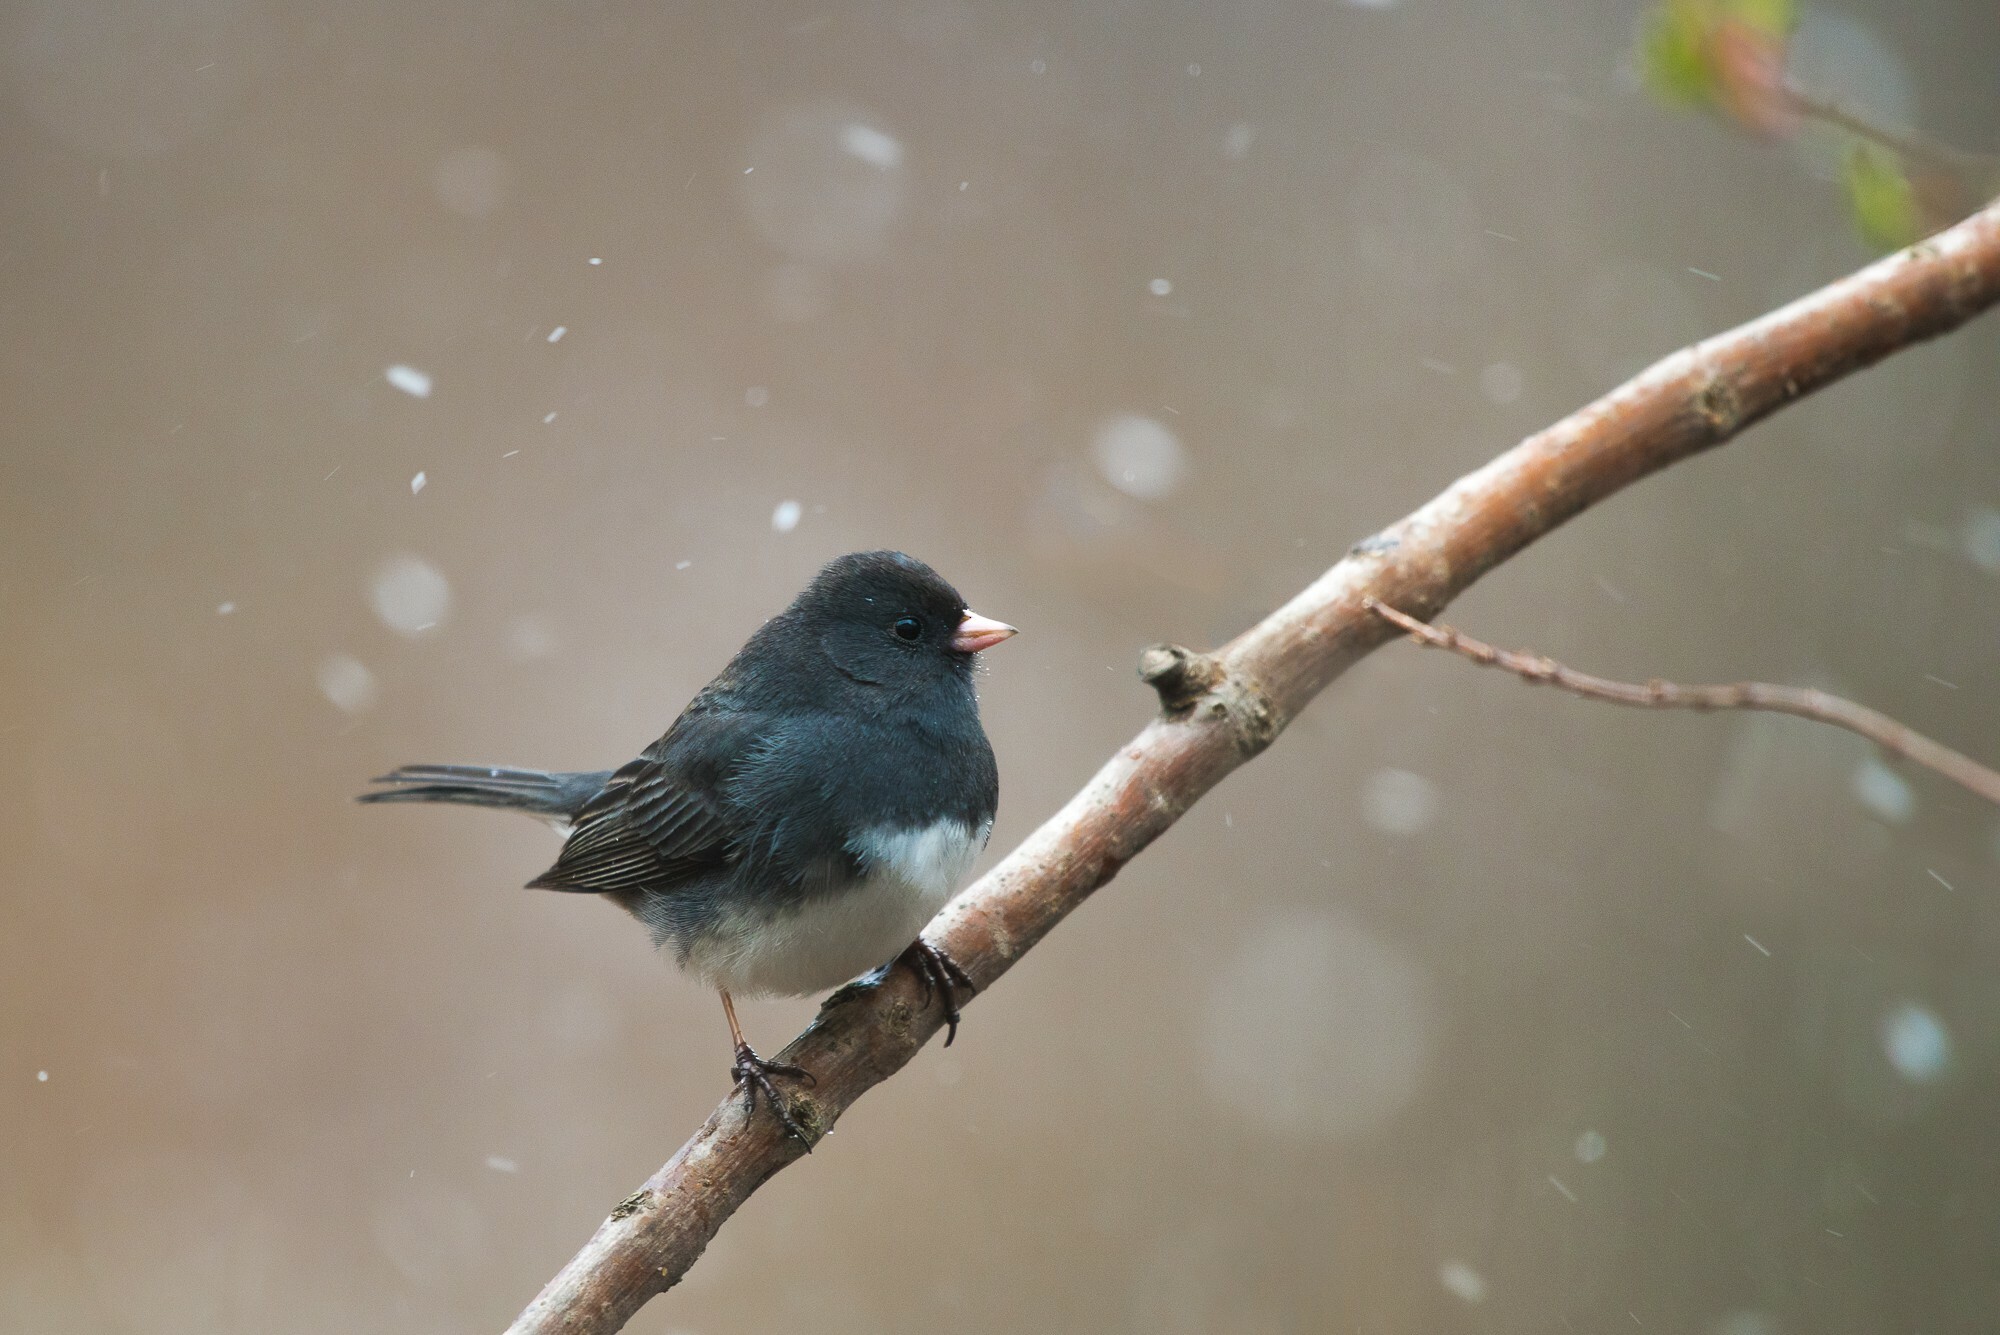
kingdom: Animalia
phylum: Chordata
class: Aves
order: Passeriformes
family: Passerellidae
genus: Junco
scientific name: Junco hyemalis
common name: Dark-eyed junco
